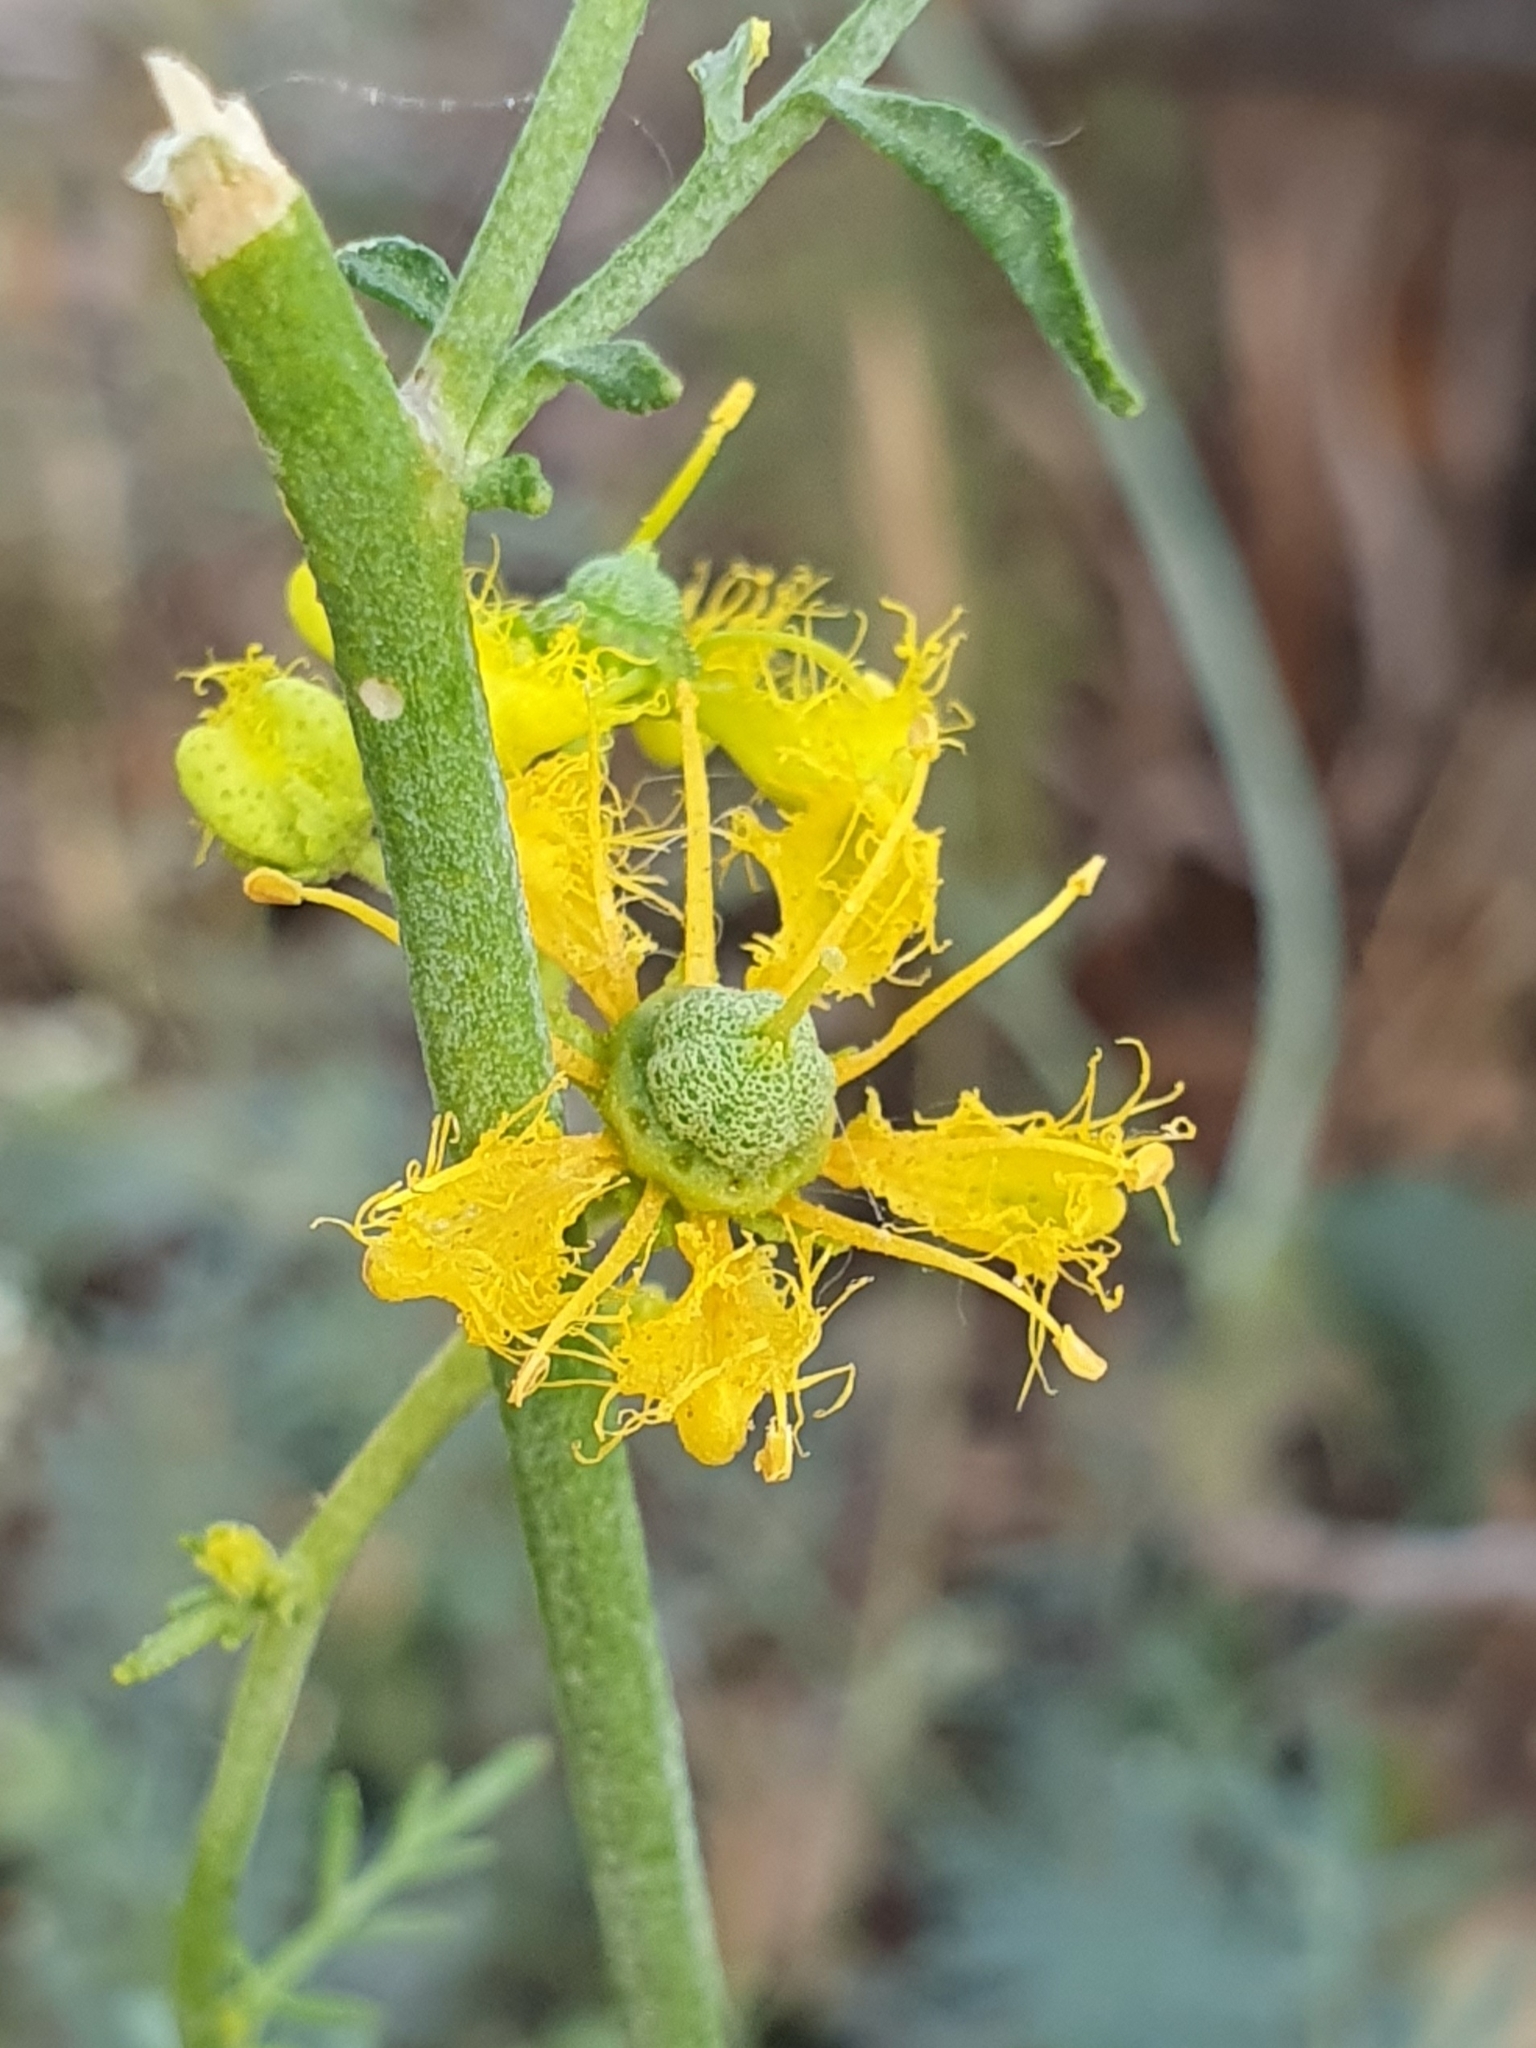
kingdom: Plantae
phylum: Tracheophyta
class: Magnoliopsida
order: Sapindales
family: Rutaceae
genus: Ruta
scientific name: Ruta angustifolia
